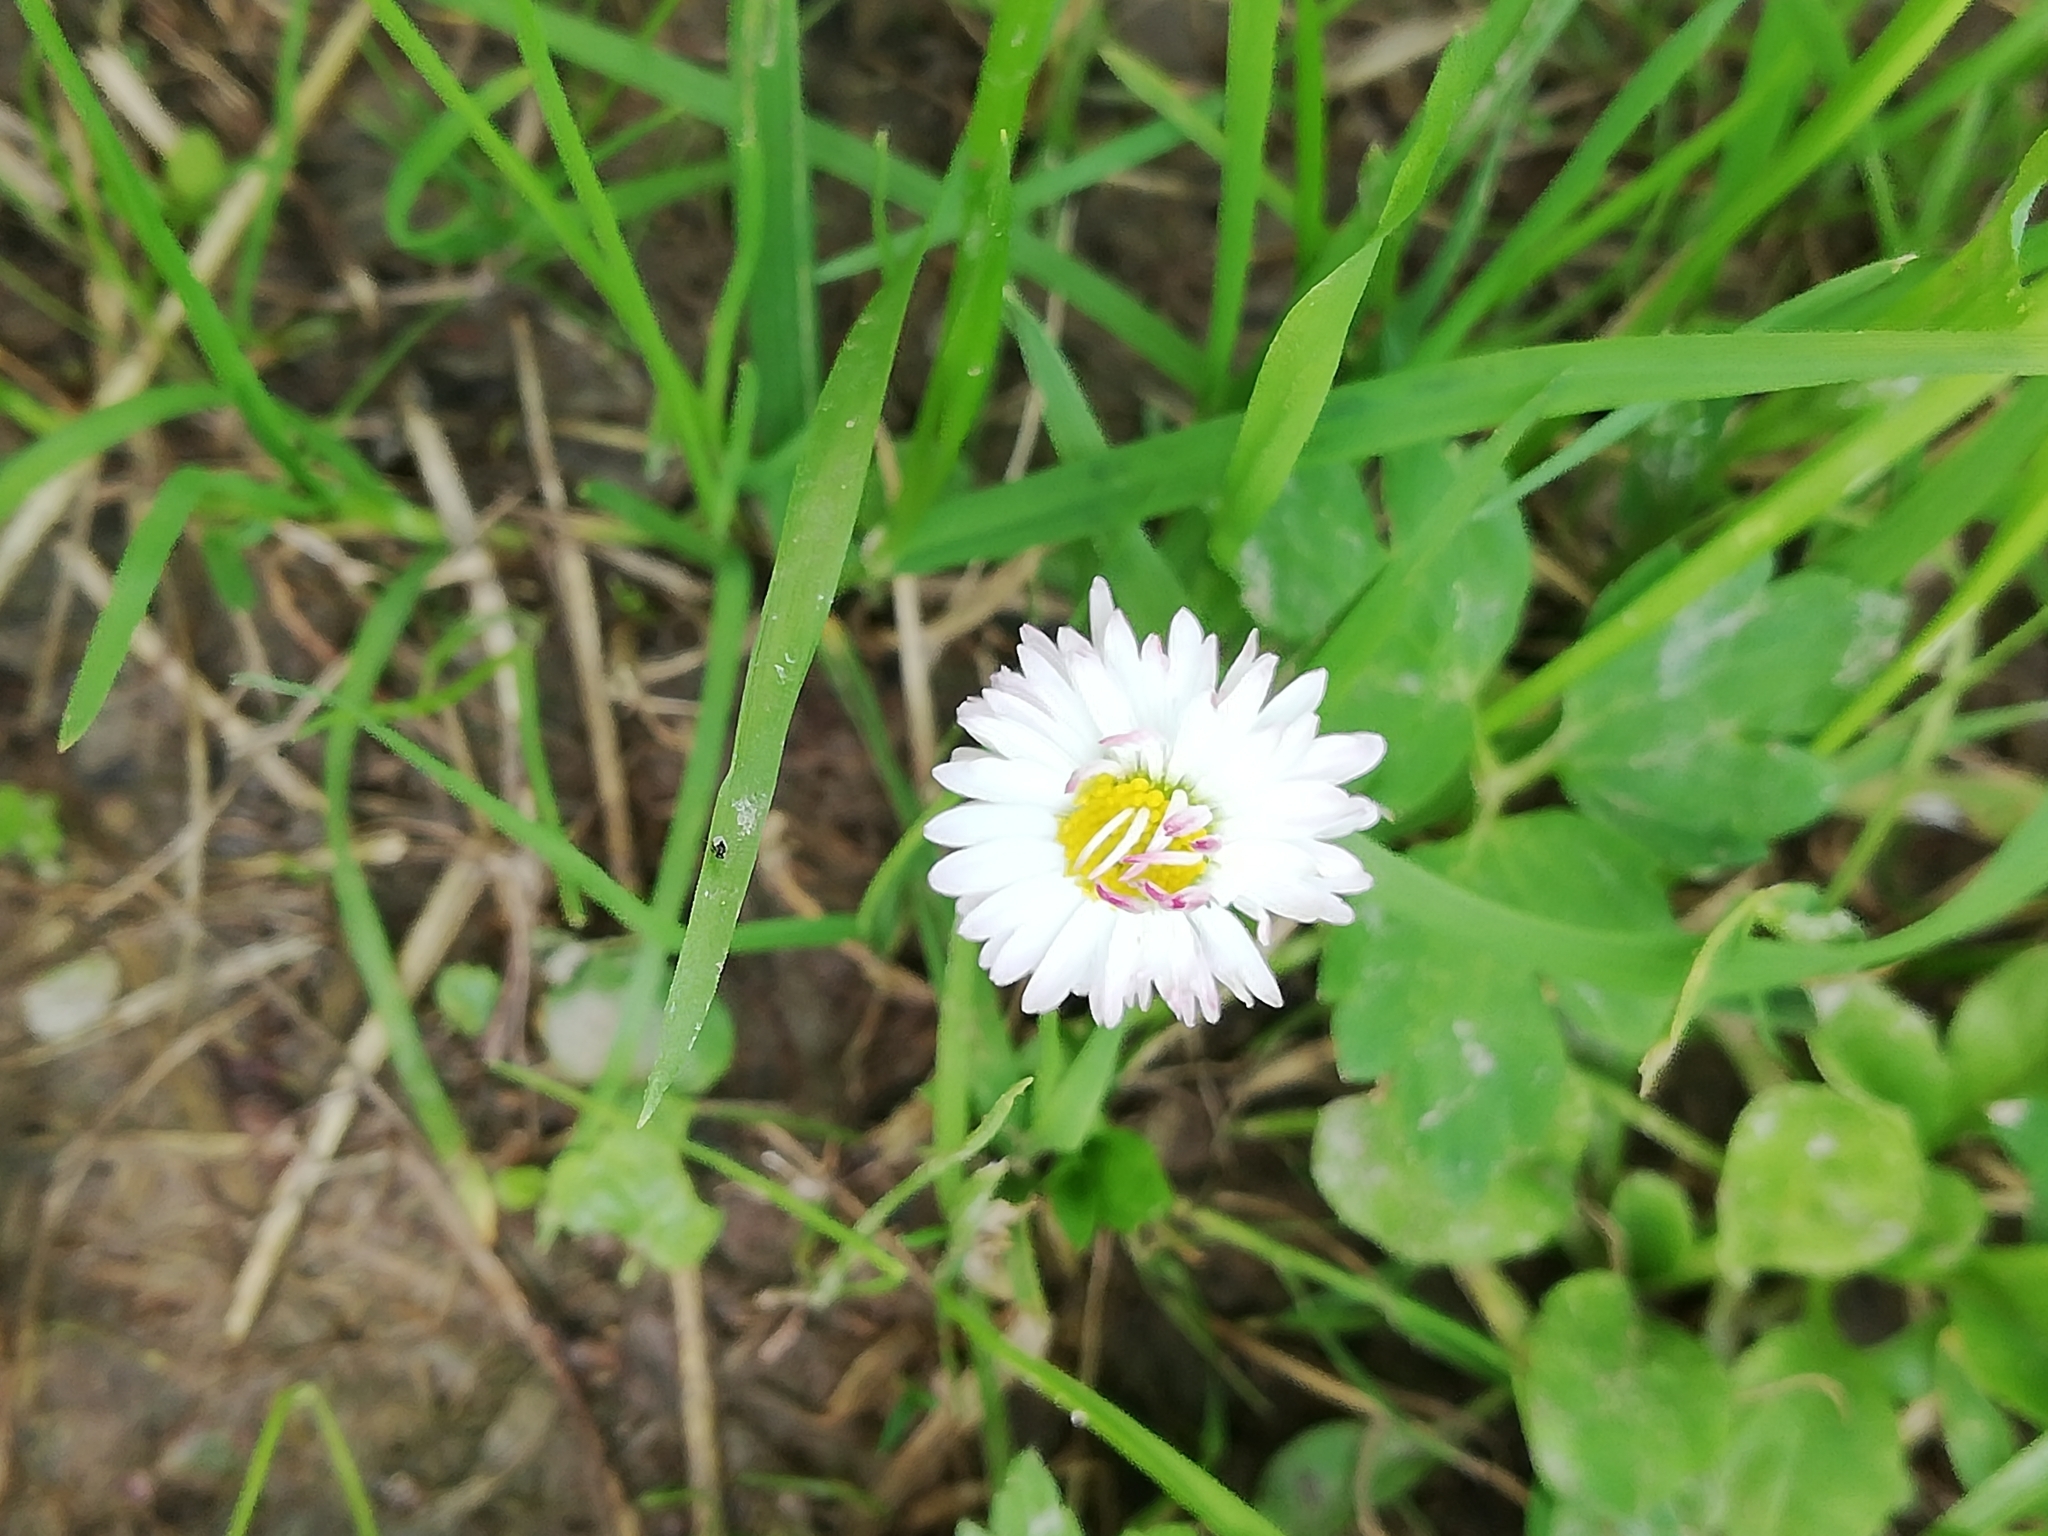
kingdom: Plantae
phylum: Tracheophyta
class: Magnoliopsida
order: Asterales
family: Asteraceae
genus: Bellis
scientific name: Bellis perennis
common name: Lawndaisy
